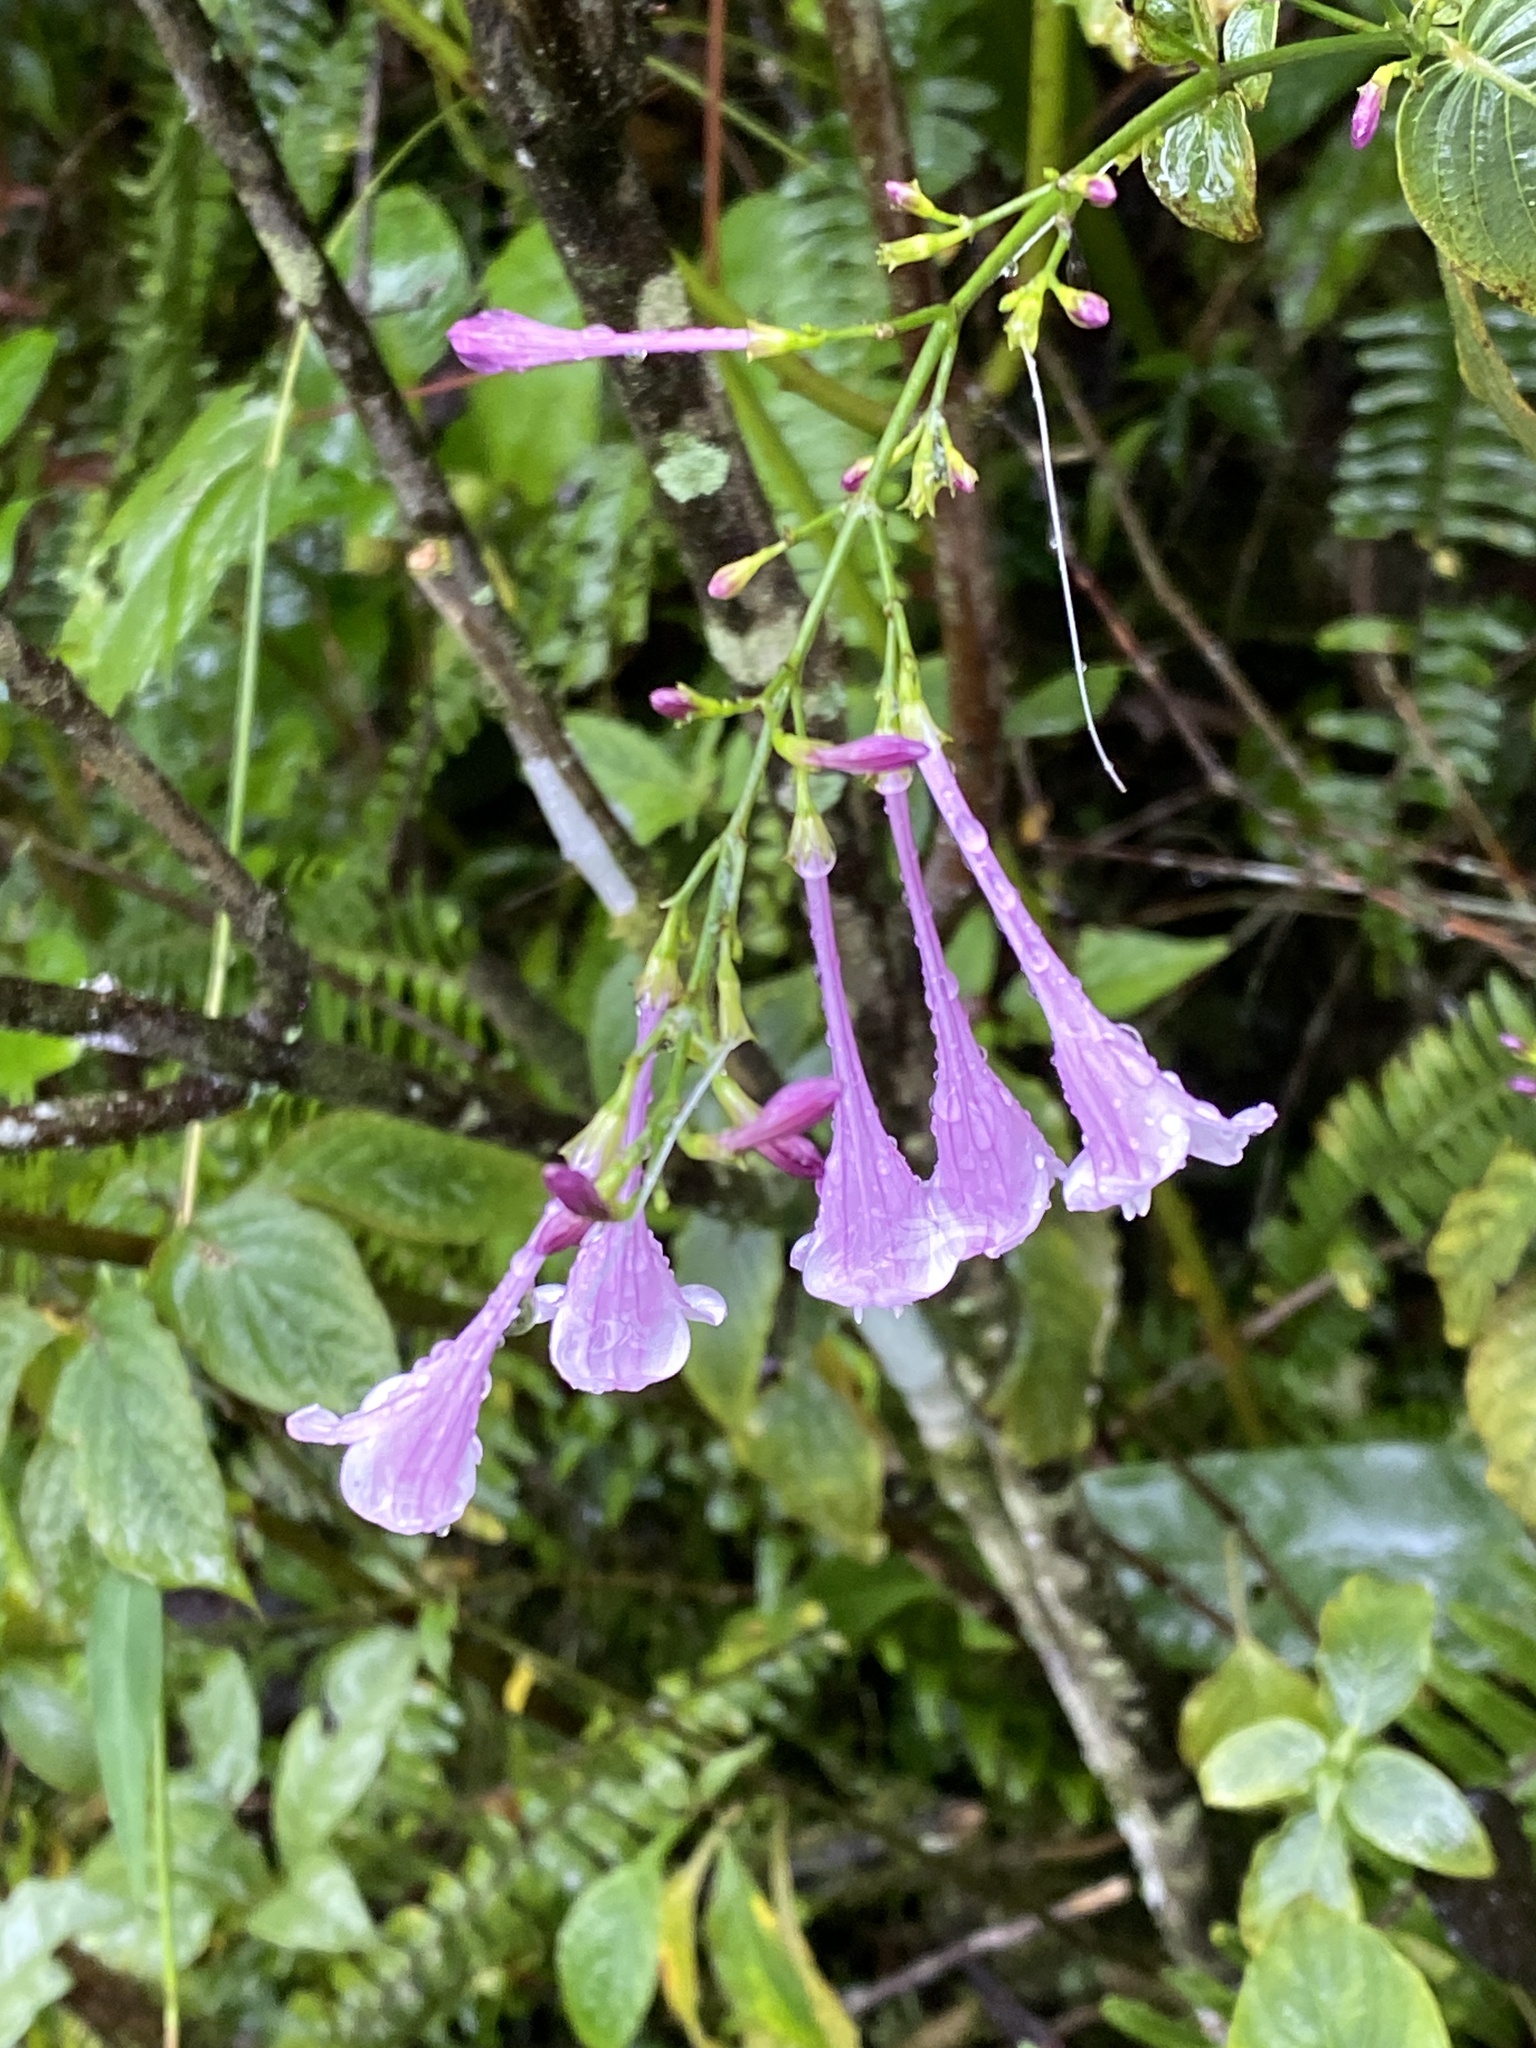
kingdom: Plantae
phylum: Tracheophyta
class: Magnoliopsida
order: Lamiales
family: Acanthaceae
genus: Strobilanthes
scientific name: Strobilanthes hamiltoniana
